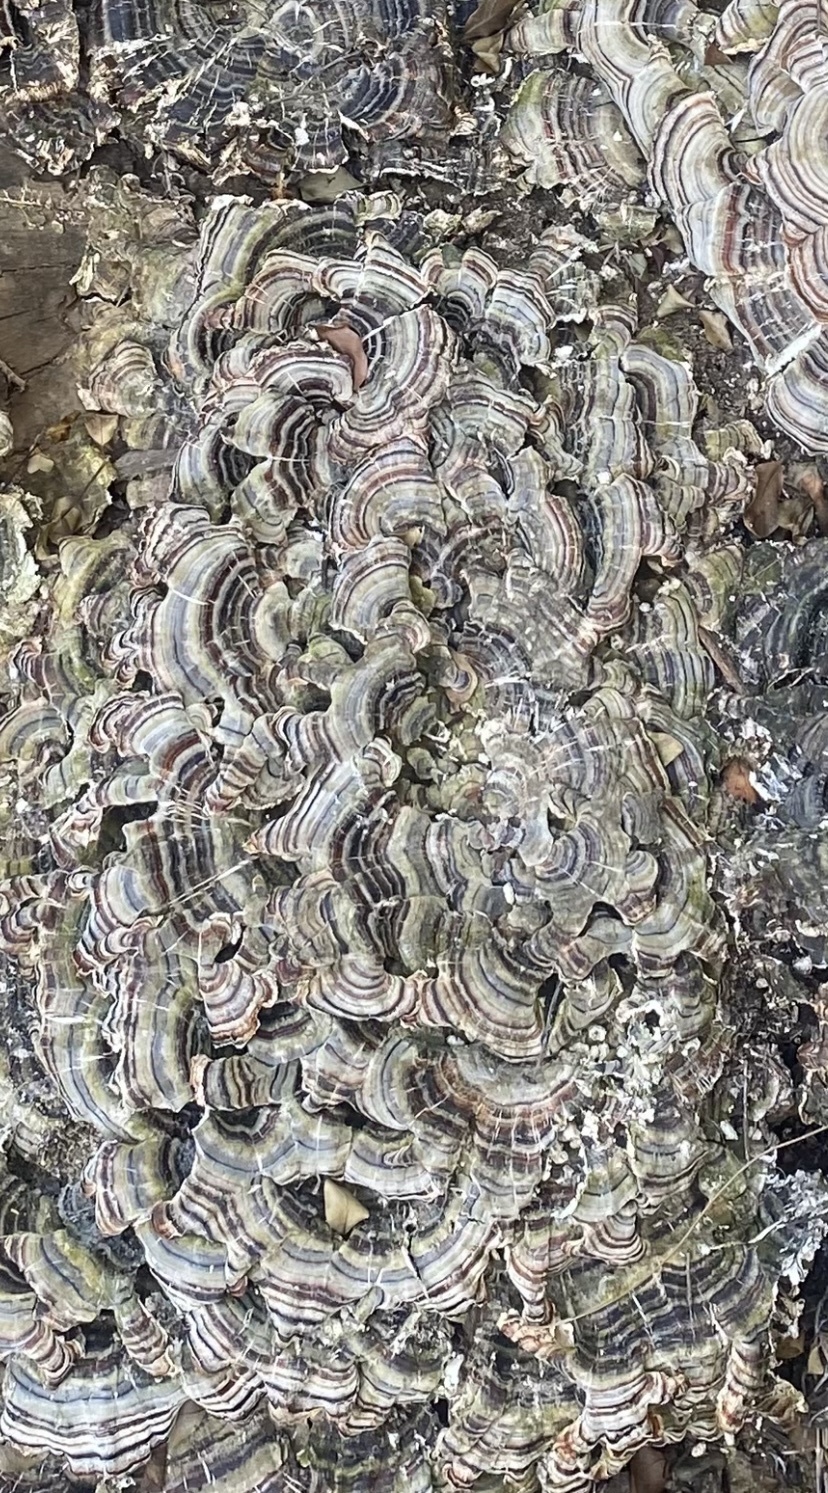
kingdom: Fungi
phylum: Basidiomycota
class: Agaricomycetes
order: Polyporales
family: Polyporaceae
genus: Trametes
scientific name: Trametes versicolor
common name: Turkeytail
